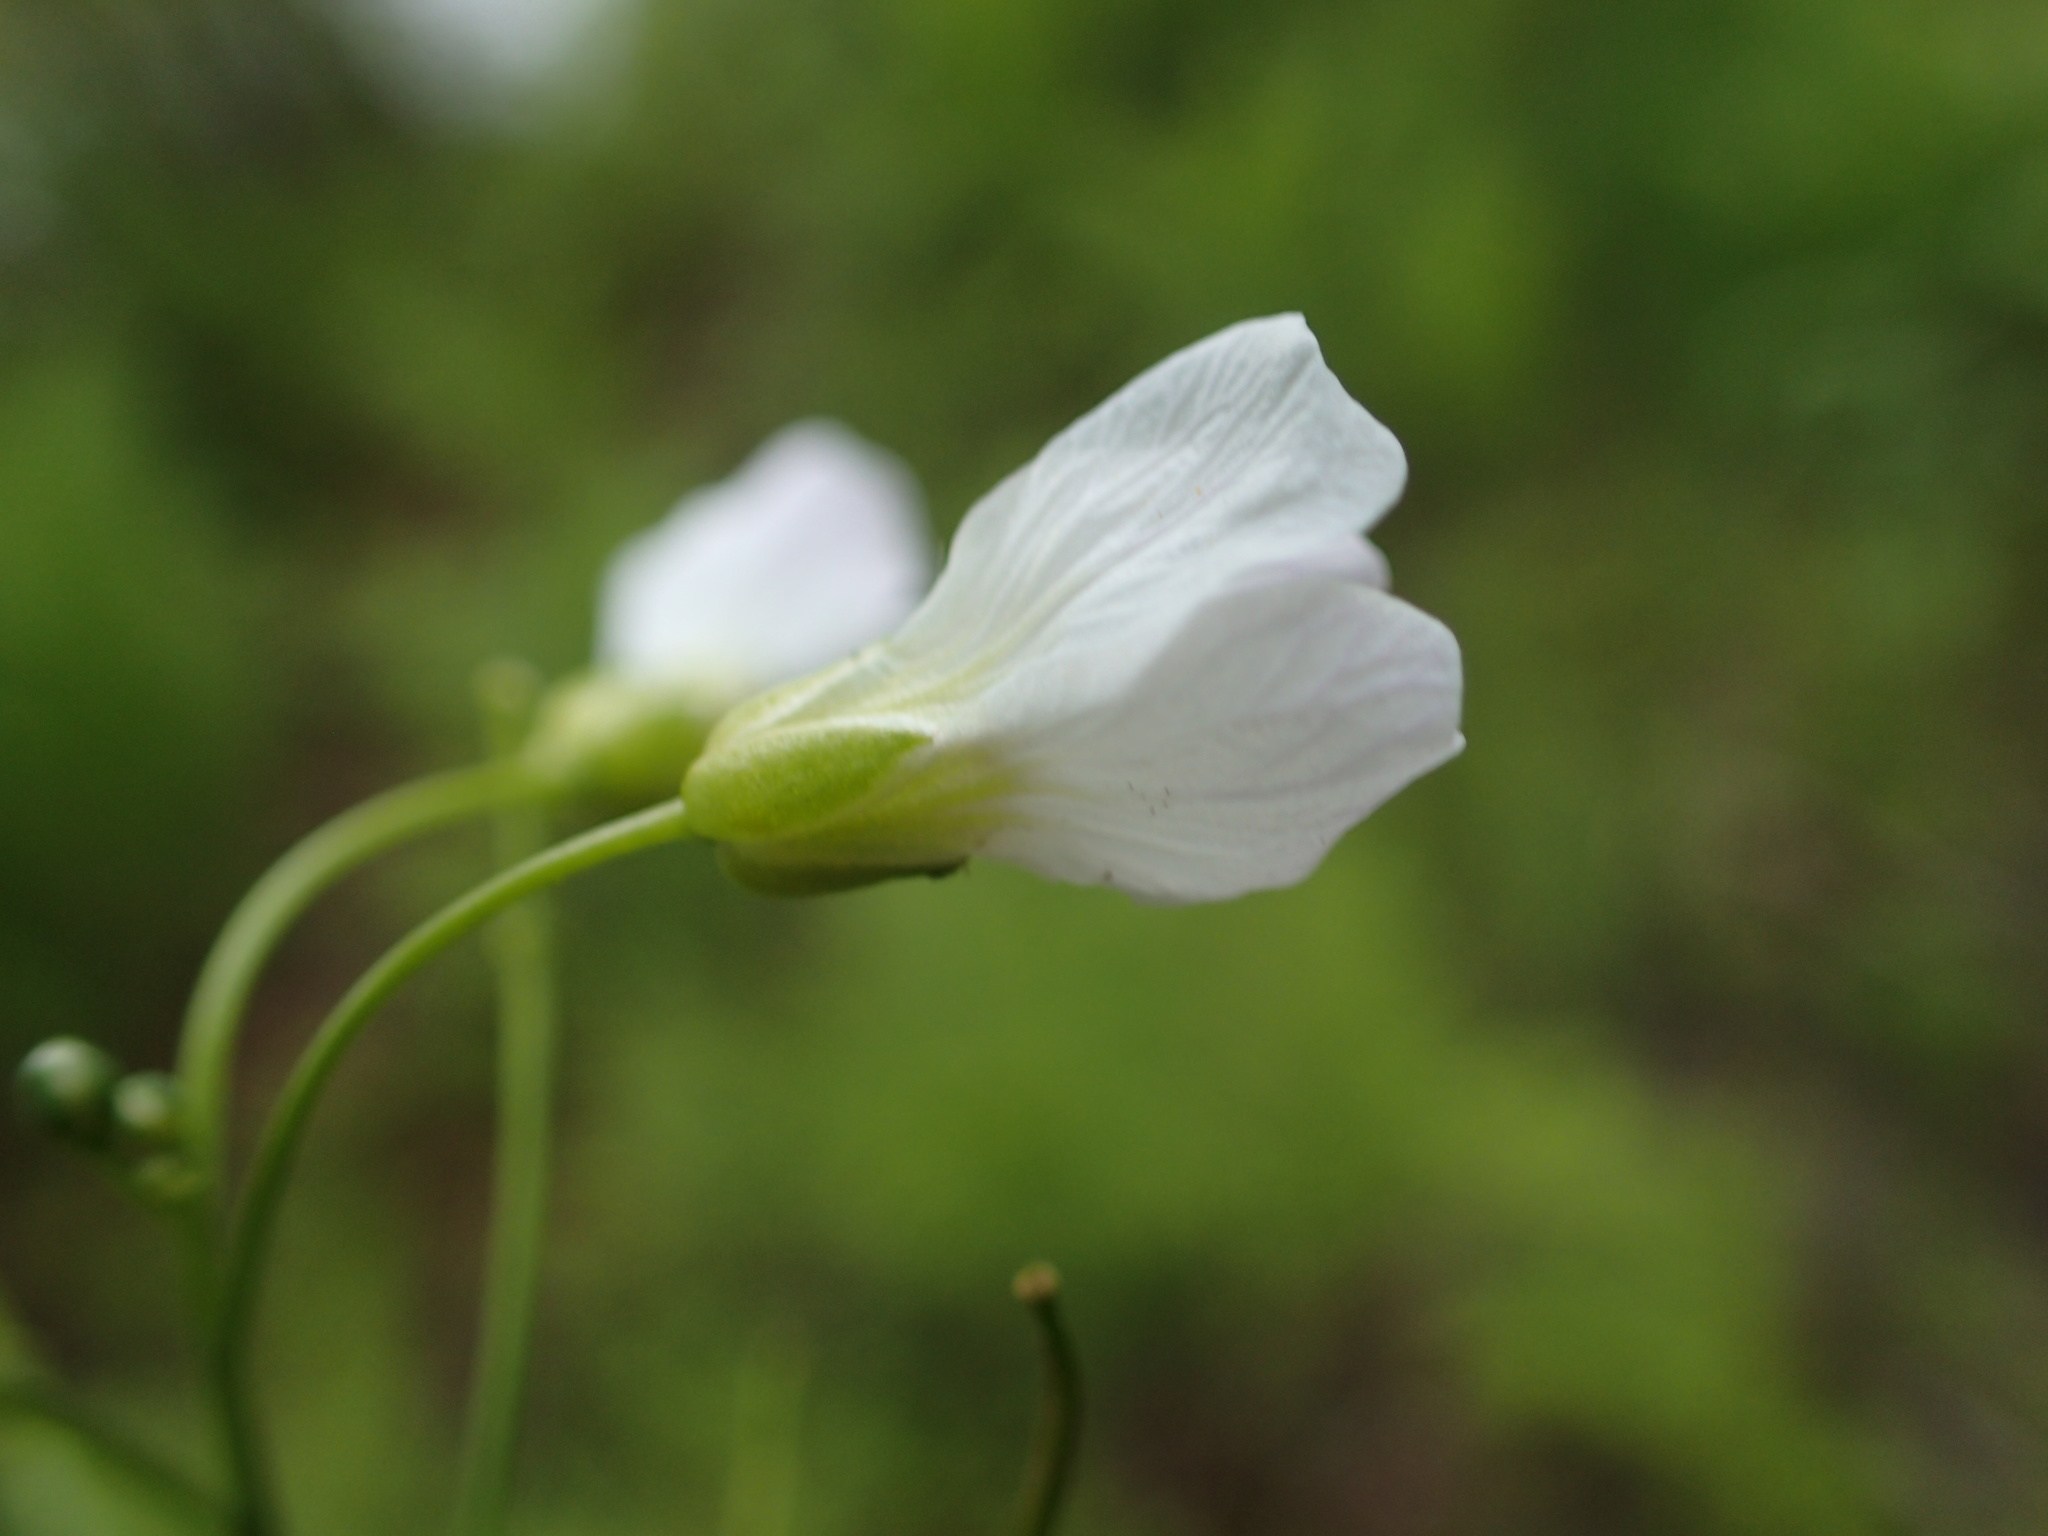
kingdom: Plantae
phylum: Tracheophyta
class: Magnoliopsida
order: Brassicales
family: Brassicaceae
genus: Cardamine
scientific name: Cardamine pratensis
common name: Cuckoo flower
